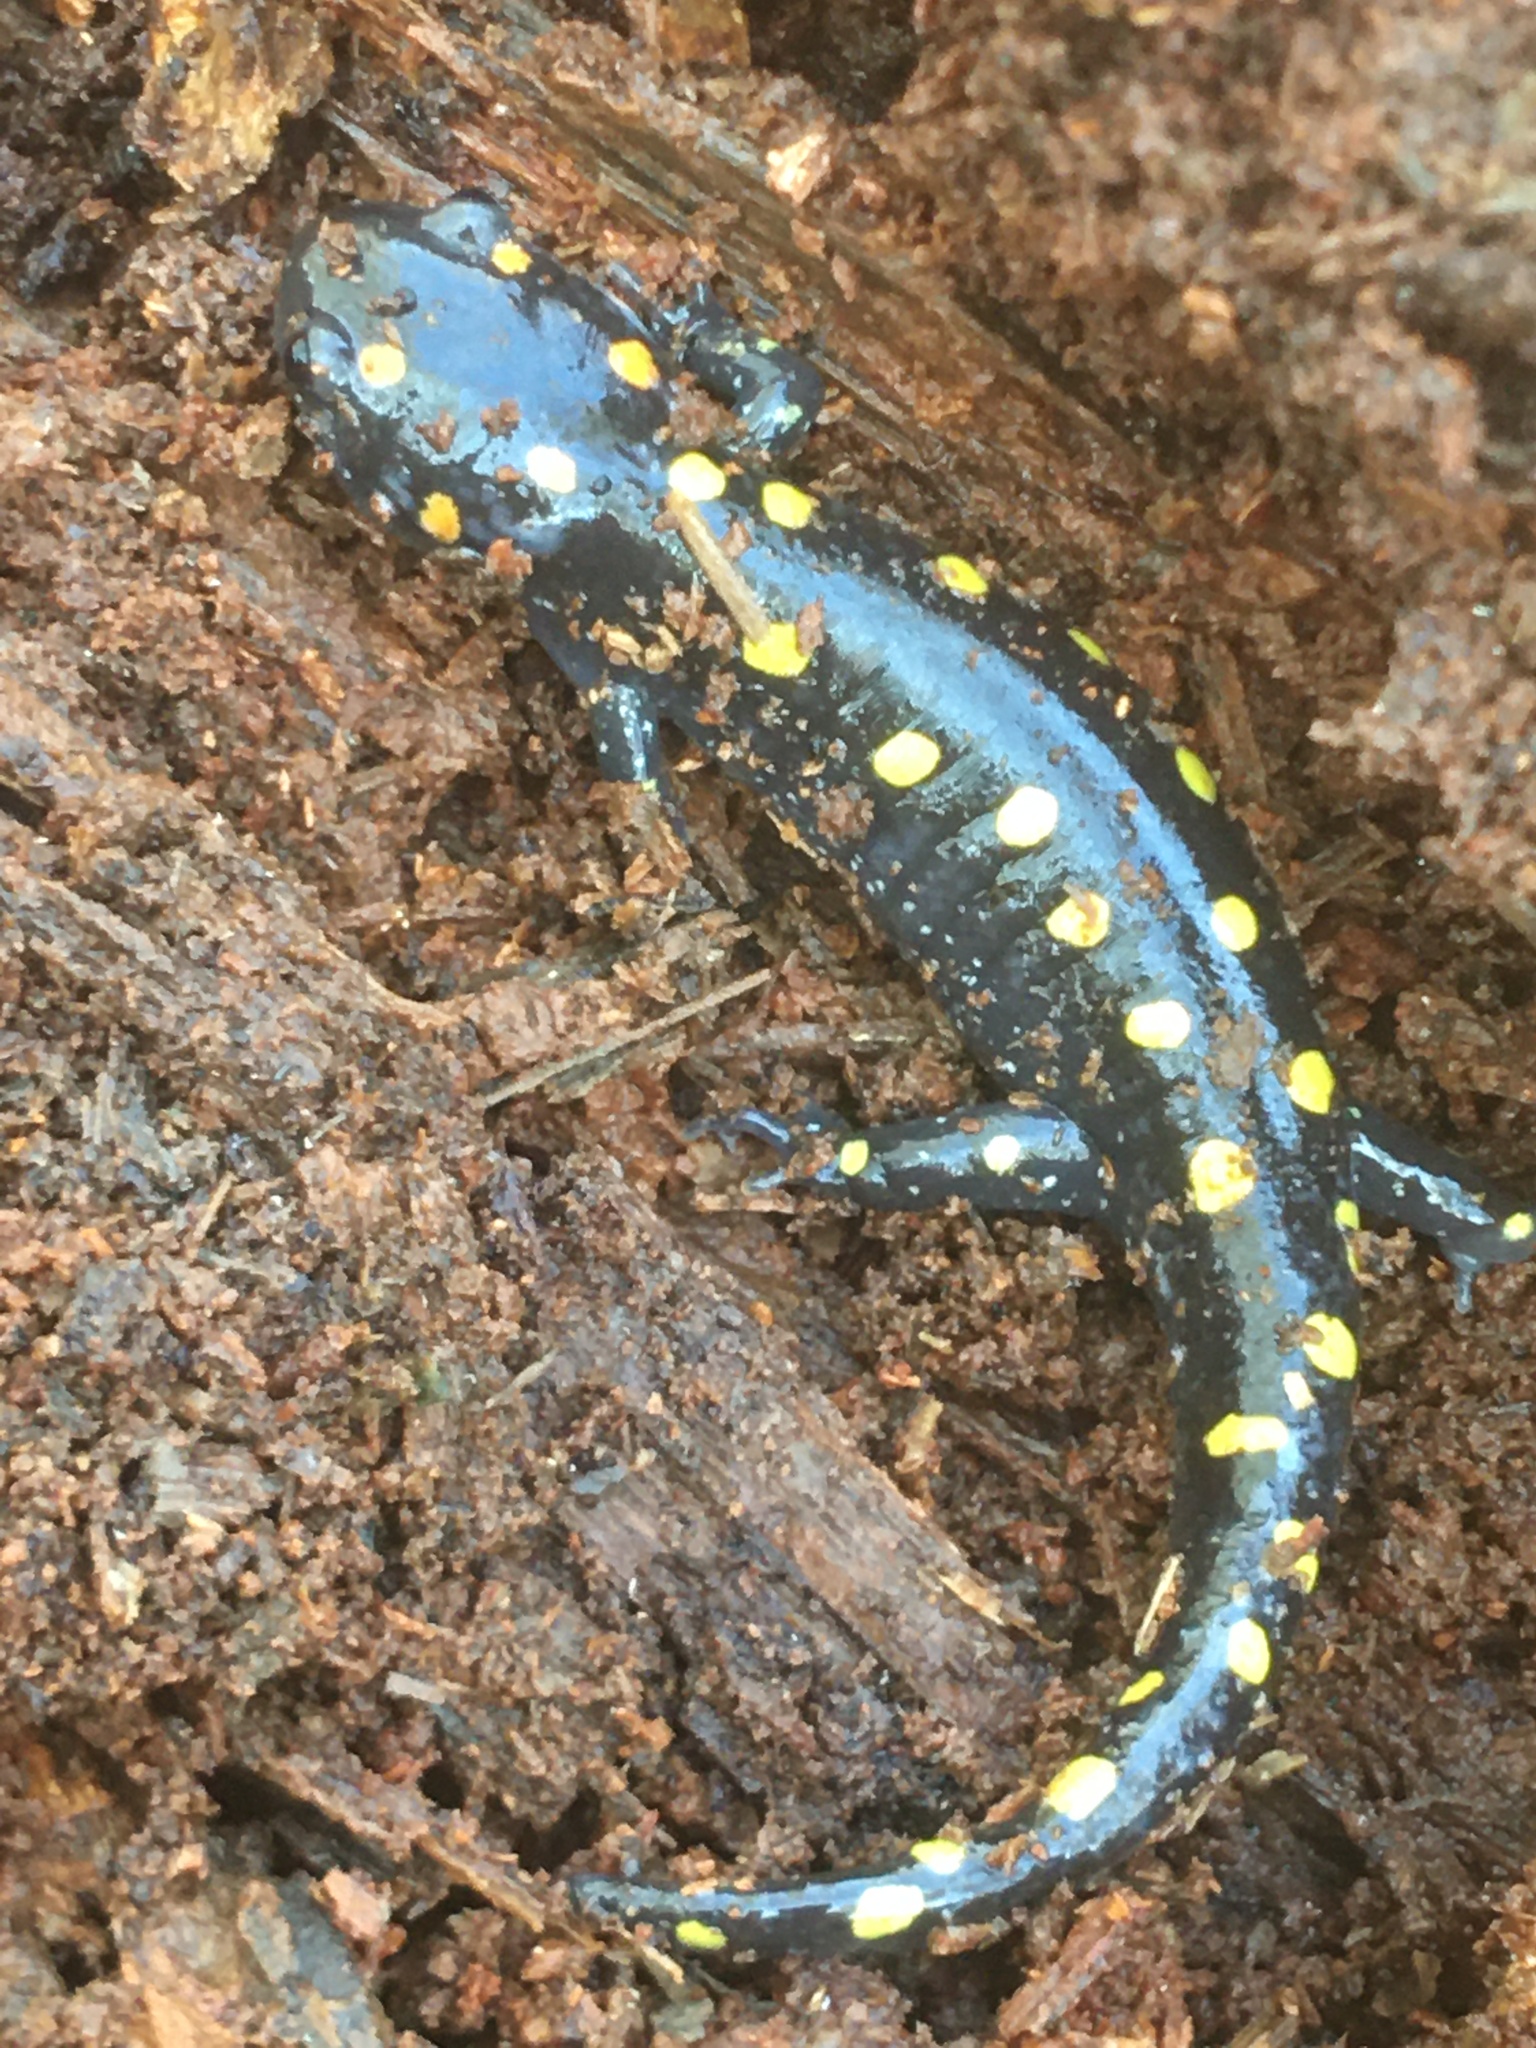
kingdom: Animalia
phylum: Chordata
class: Amphibia
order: Caudata
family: Ambystomatidae
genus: Ambystoma
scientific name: Ambystoma maculatum
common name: Spotted salamander
